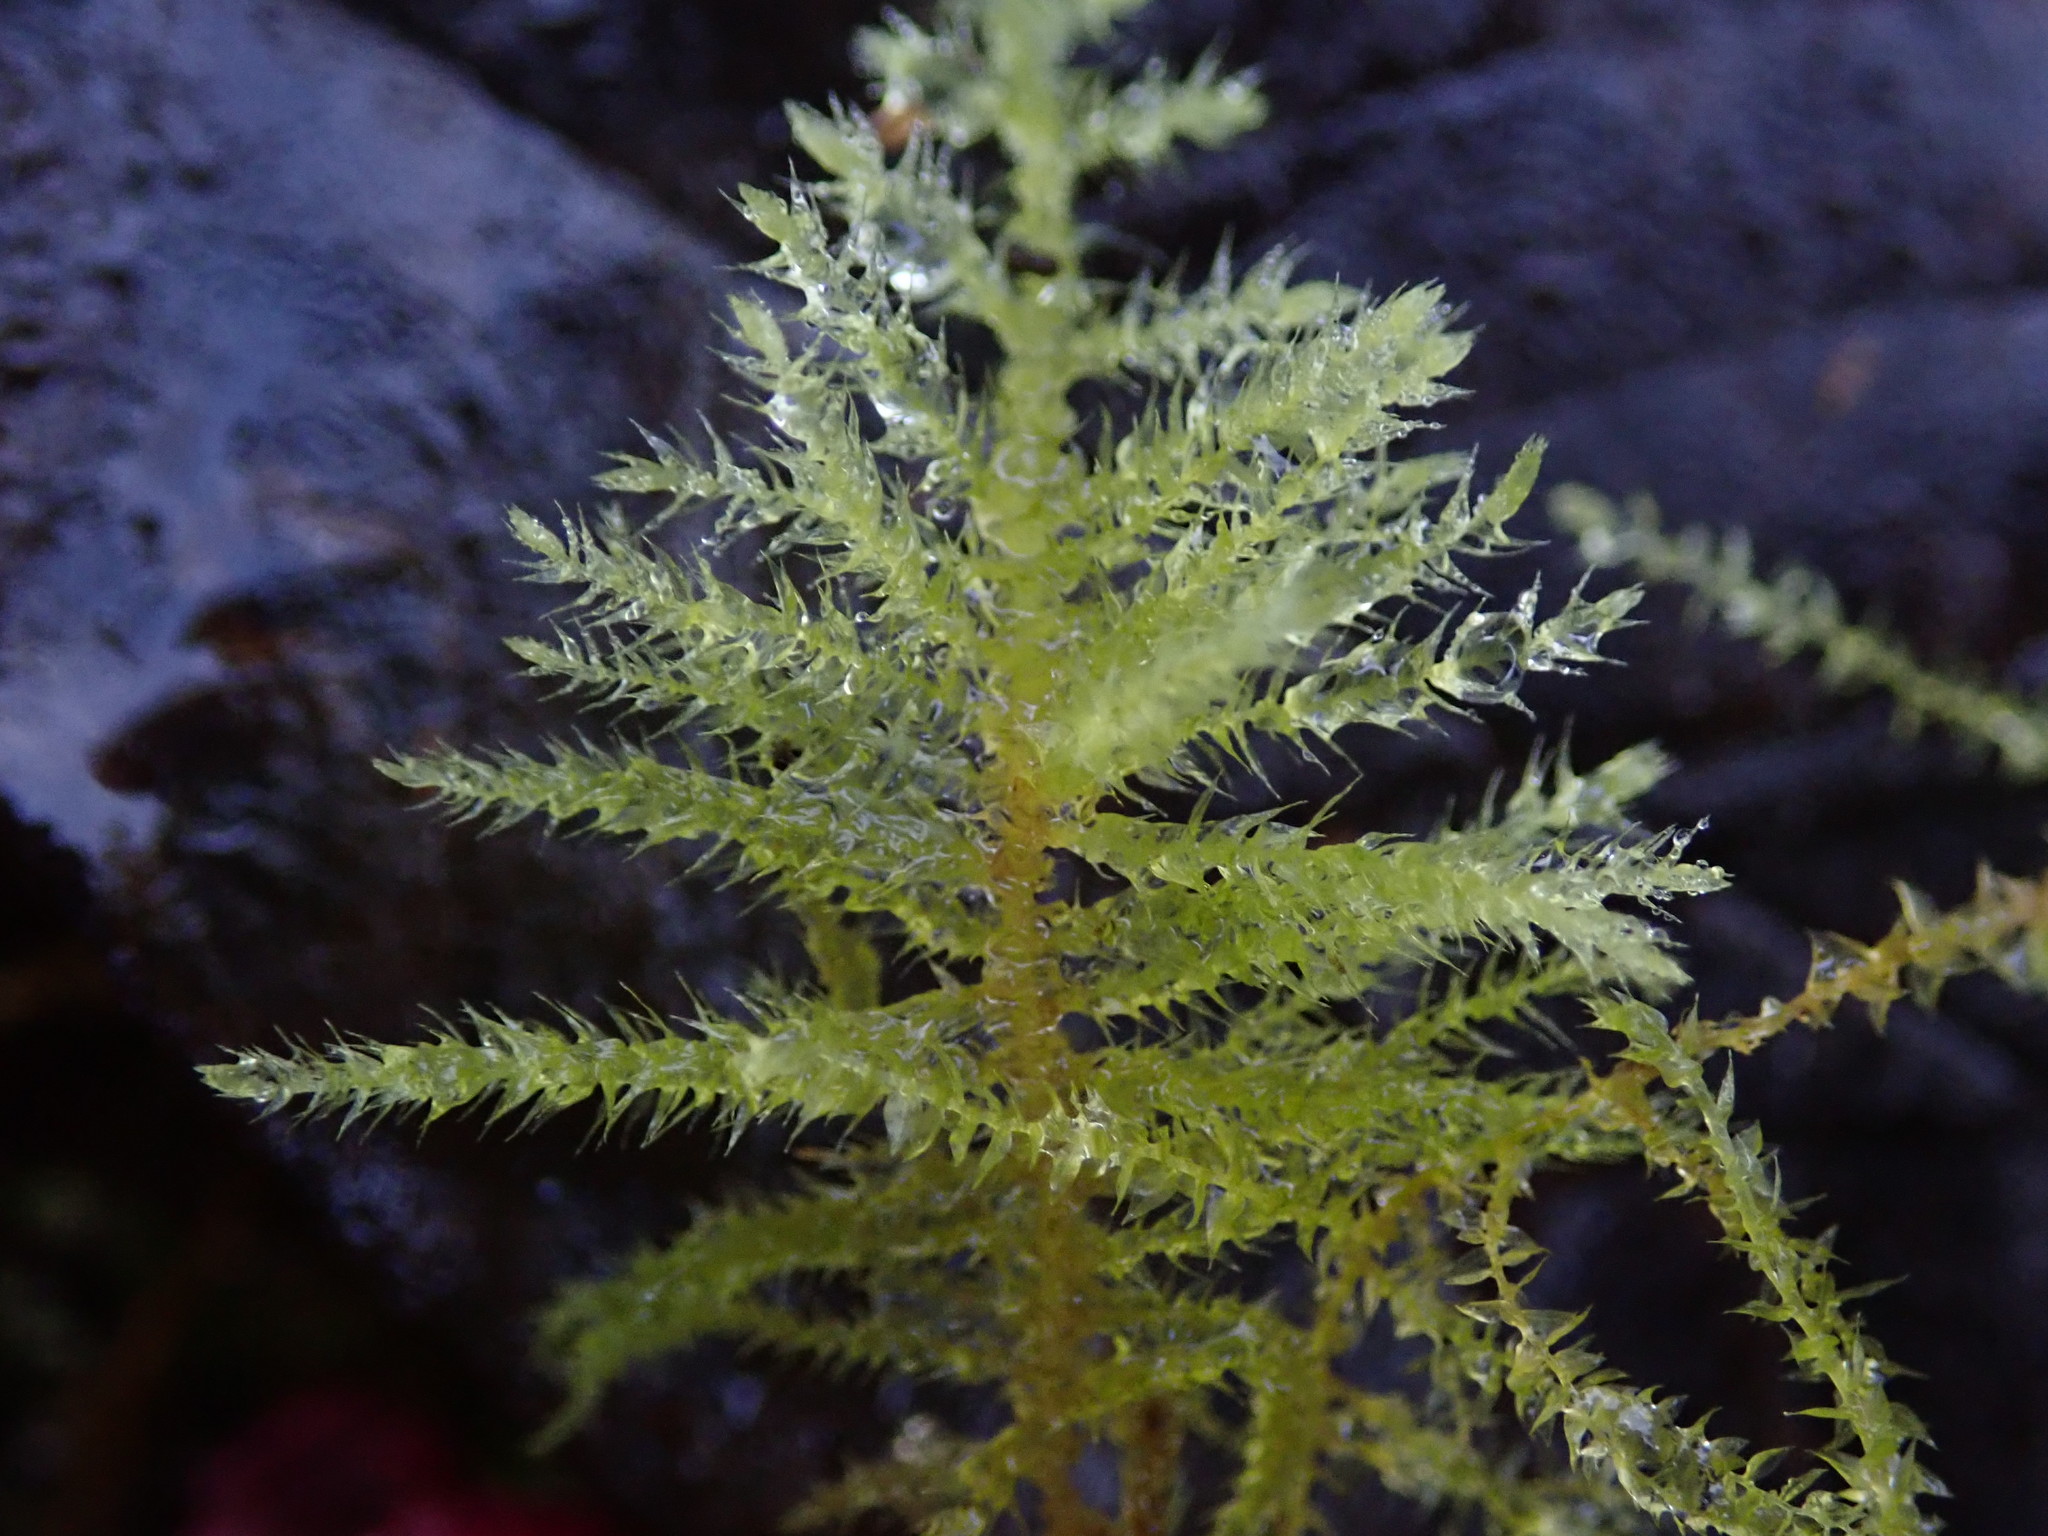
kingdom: Plantae
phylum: Bryophyta
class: Bryopsida
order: Hypnales
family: Brachytheciaceae
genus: Kindbergia
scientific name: Kindbergia praelonga
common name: Slender beaked moss
